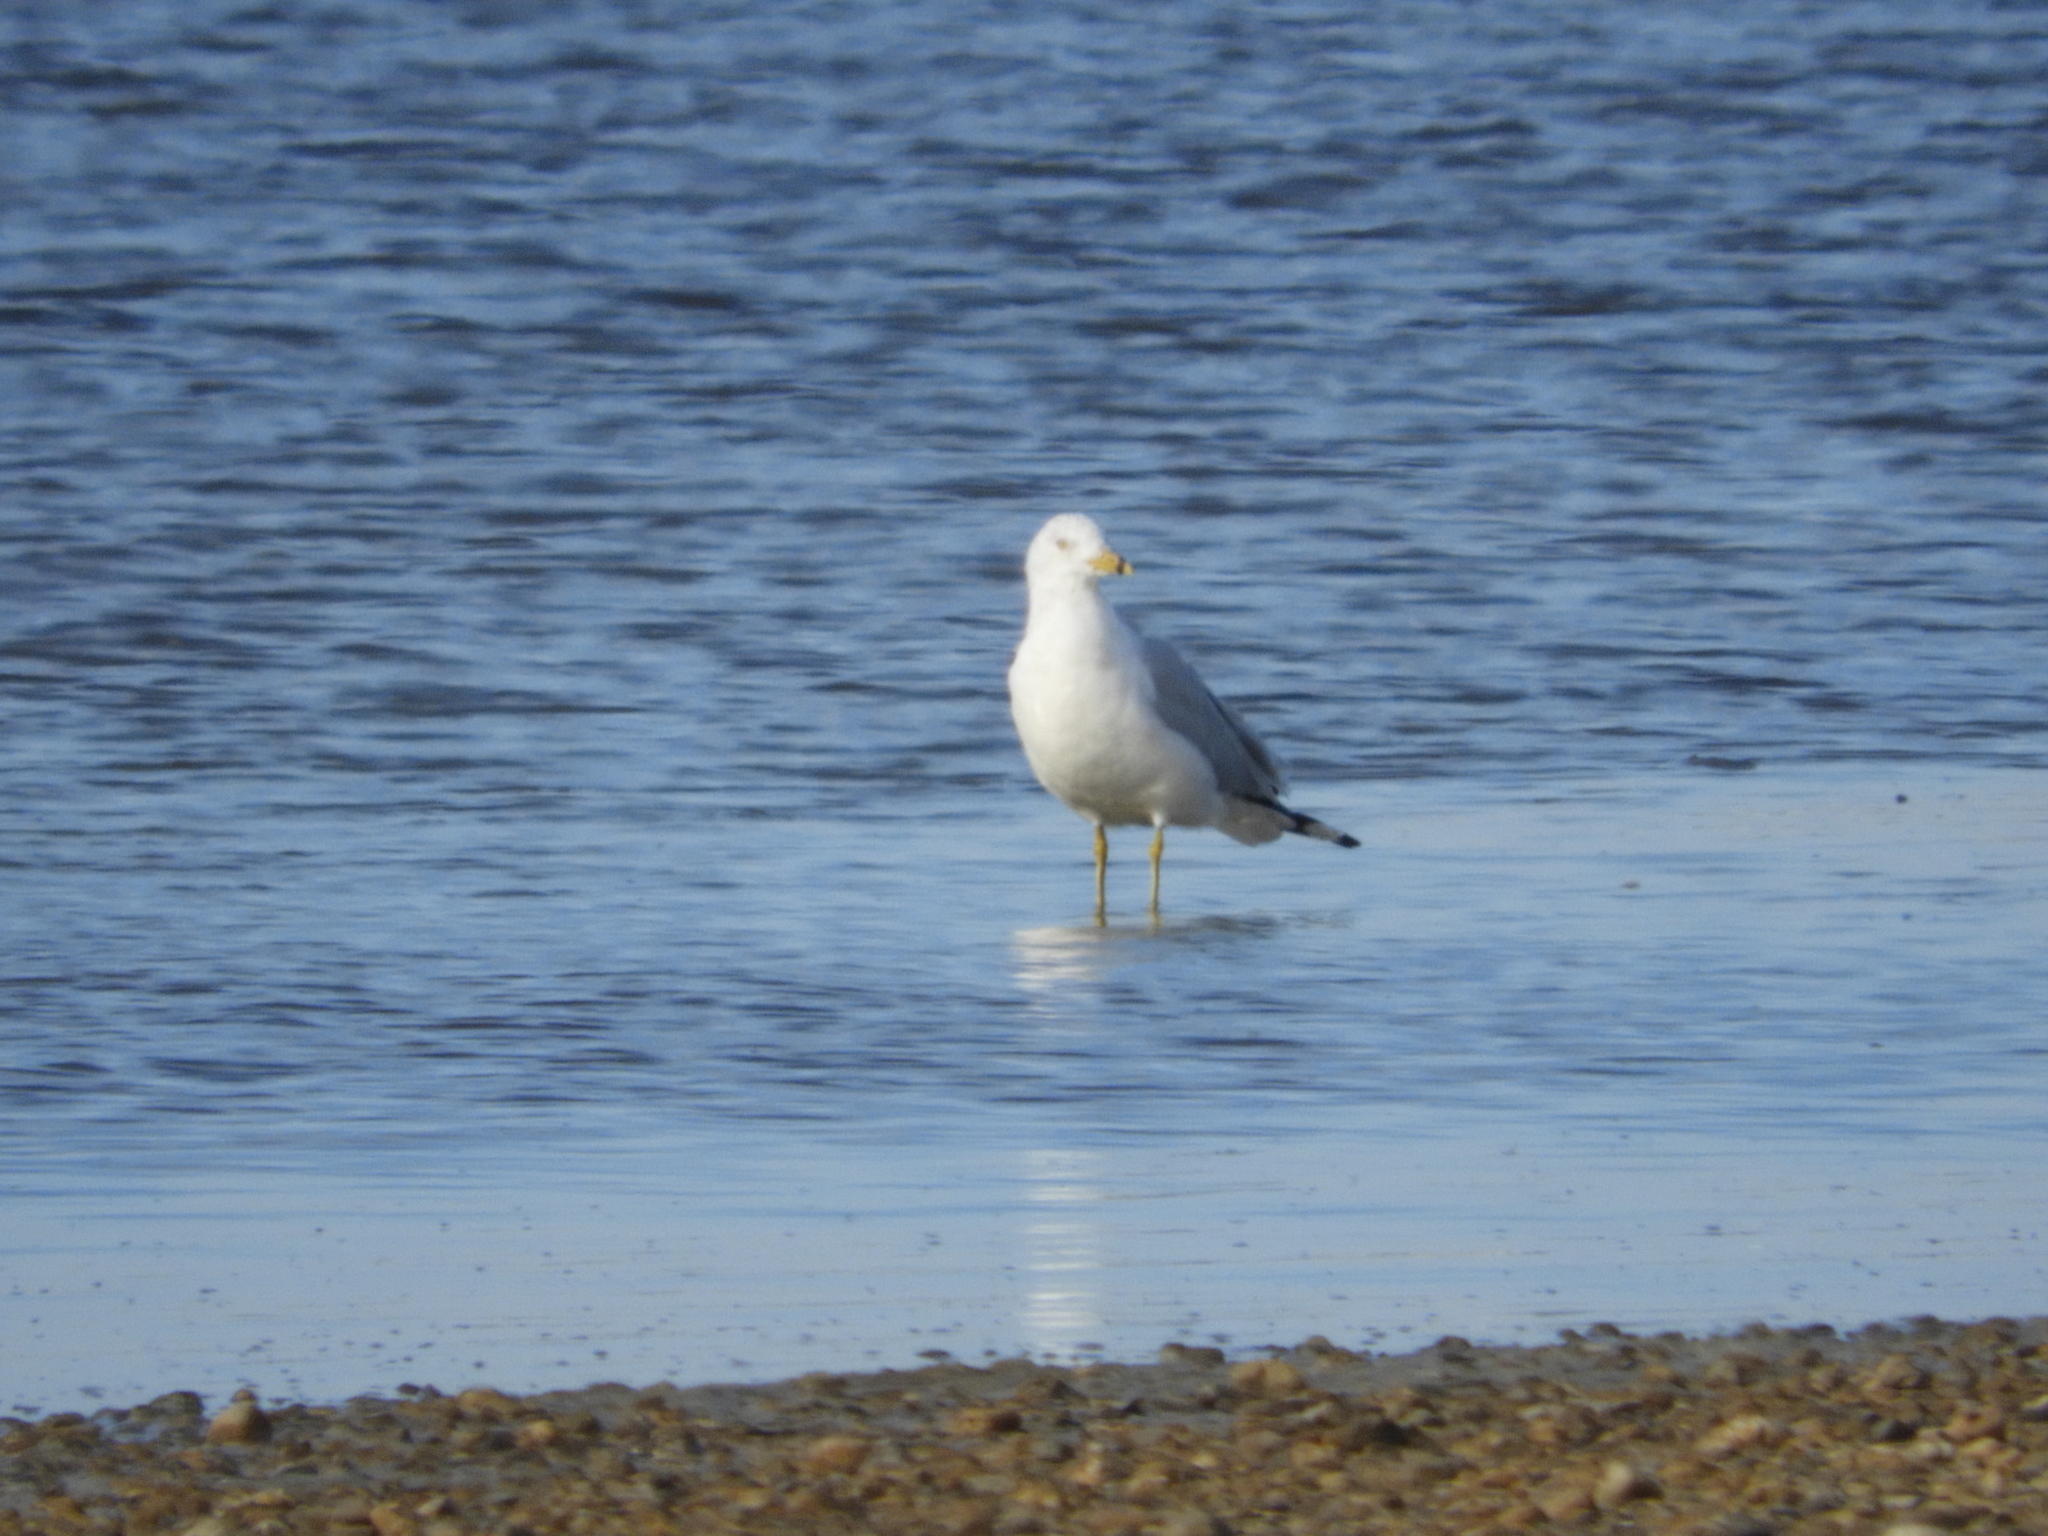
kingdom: Animalia
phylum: Chordata
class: Aves
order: Charadriiformes
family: Laridae
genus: Larus
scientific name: Larus delawarensis
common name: Ring-billed gull
